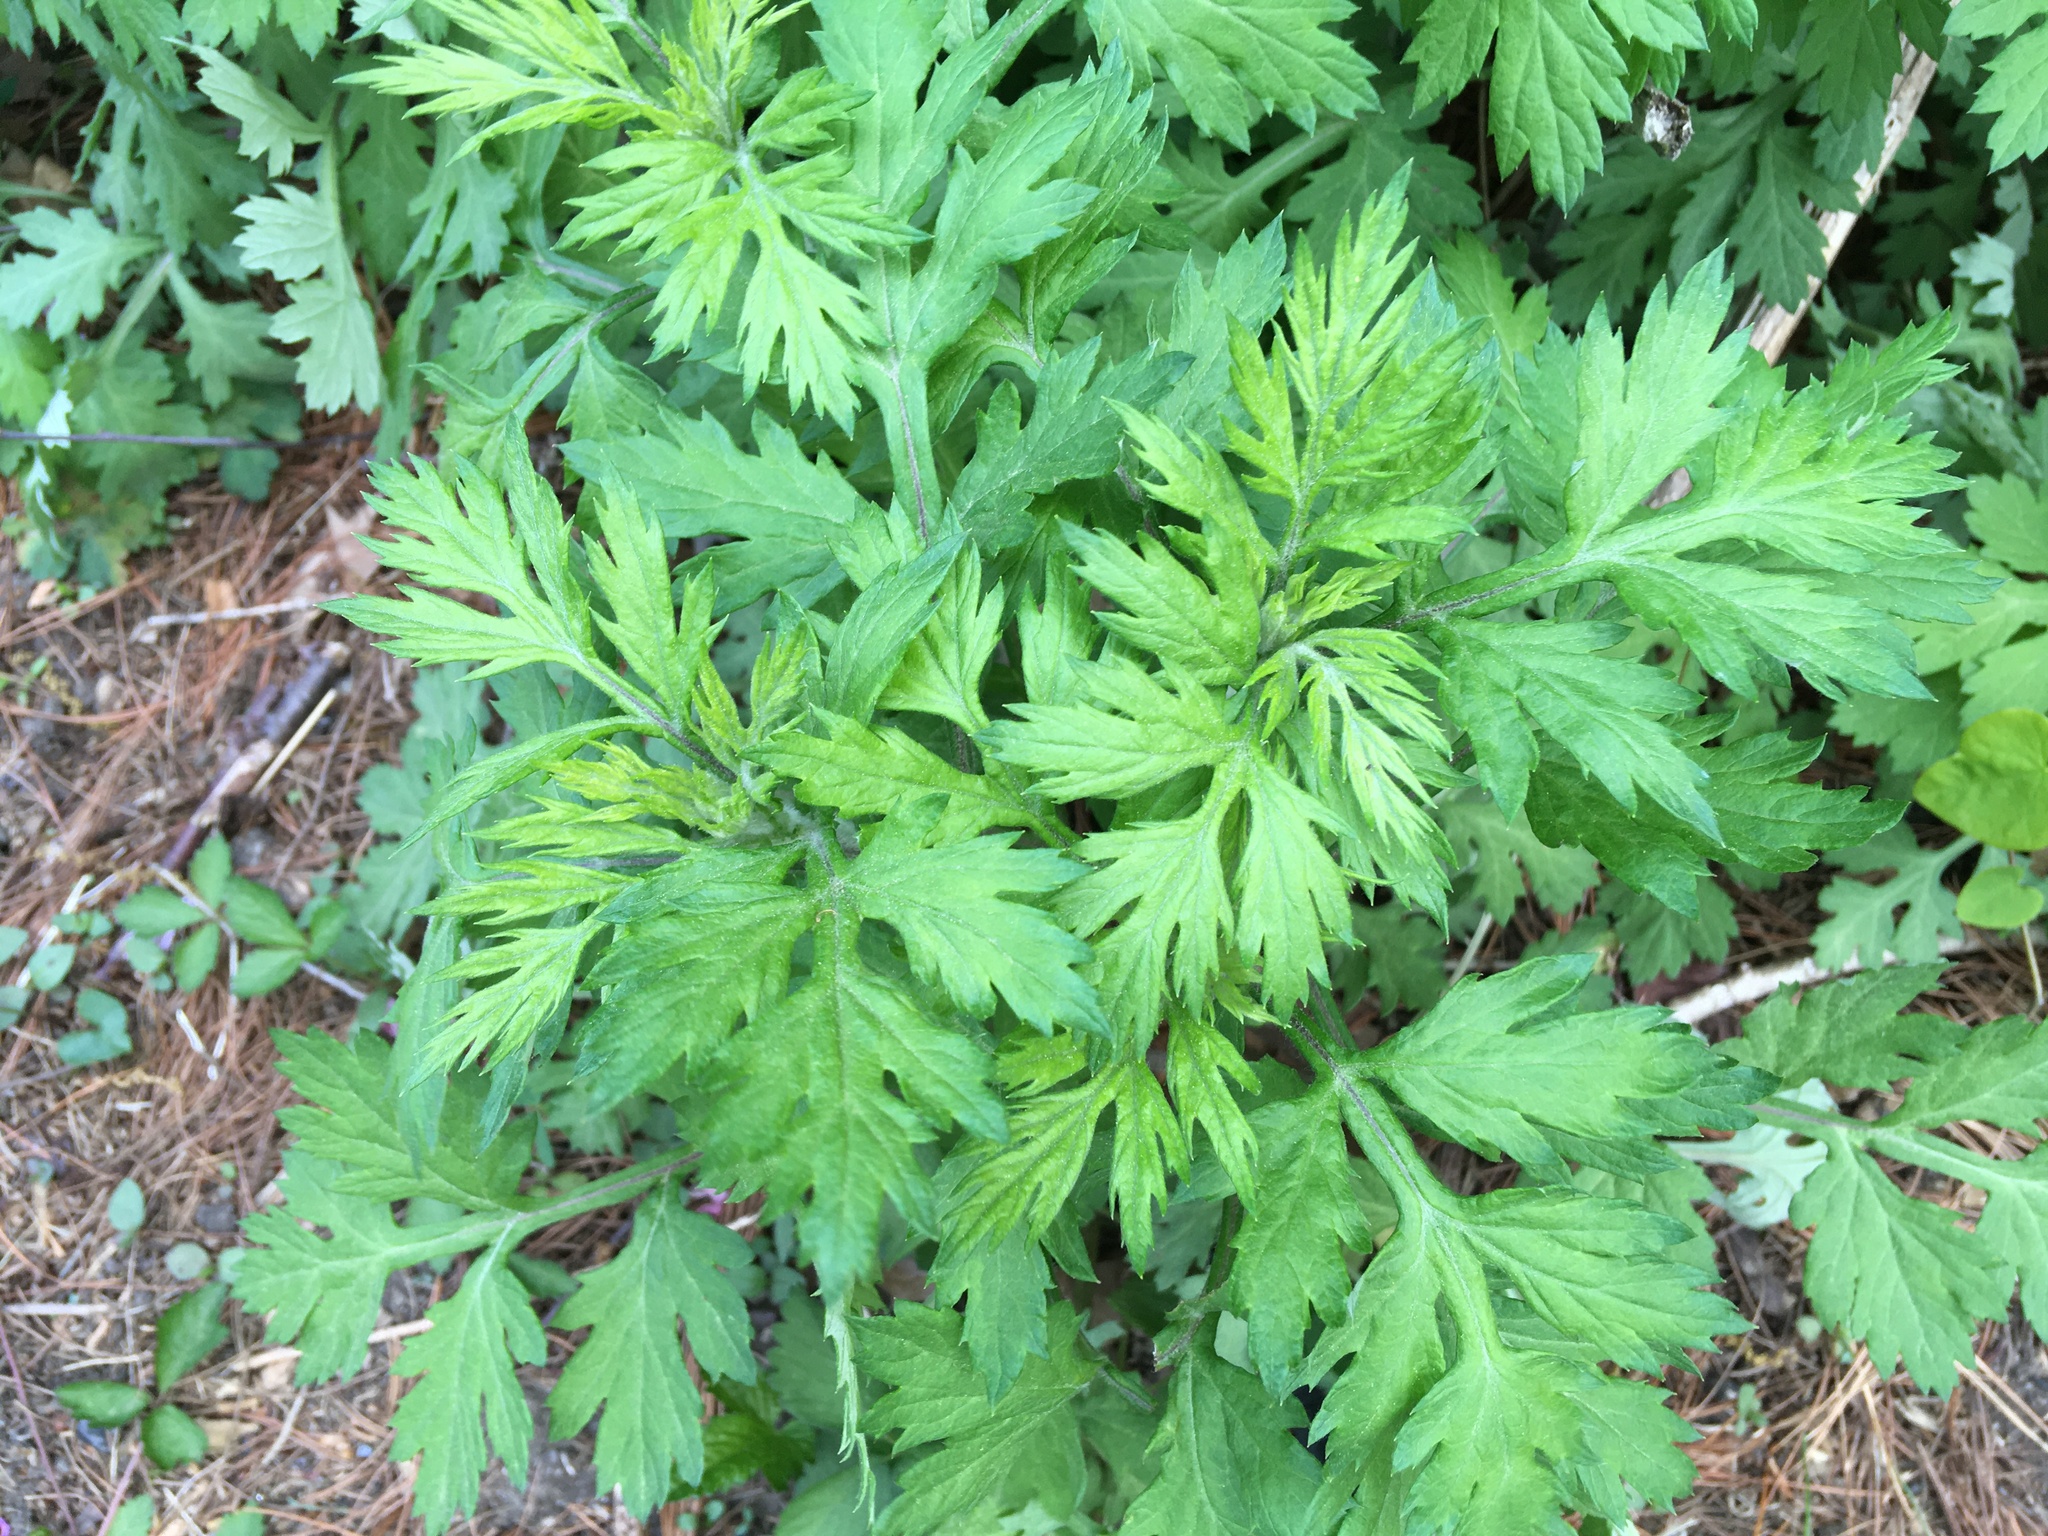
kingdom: Plantae
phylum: Tracheophyta
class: Magnoliopsida
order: Asterales
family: Asteraceae
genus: Artemisia
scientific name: Artemisia vulgaris
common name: Mugwort
